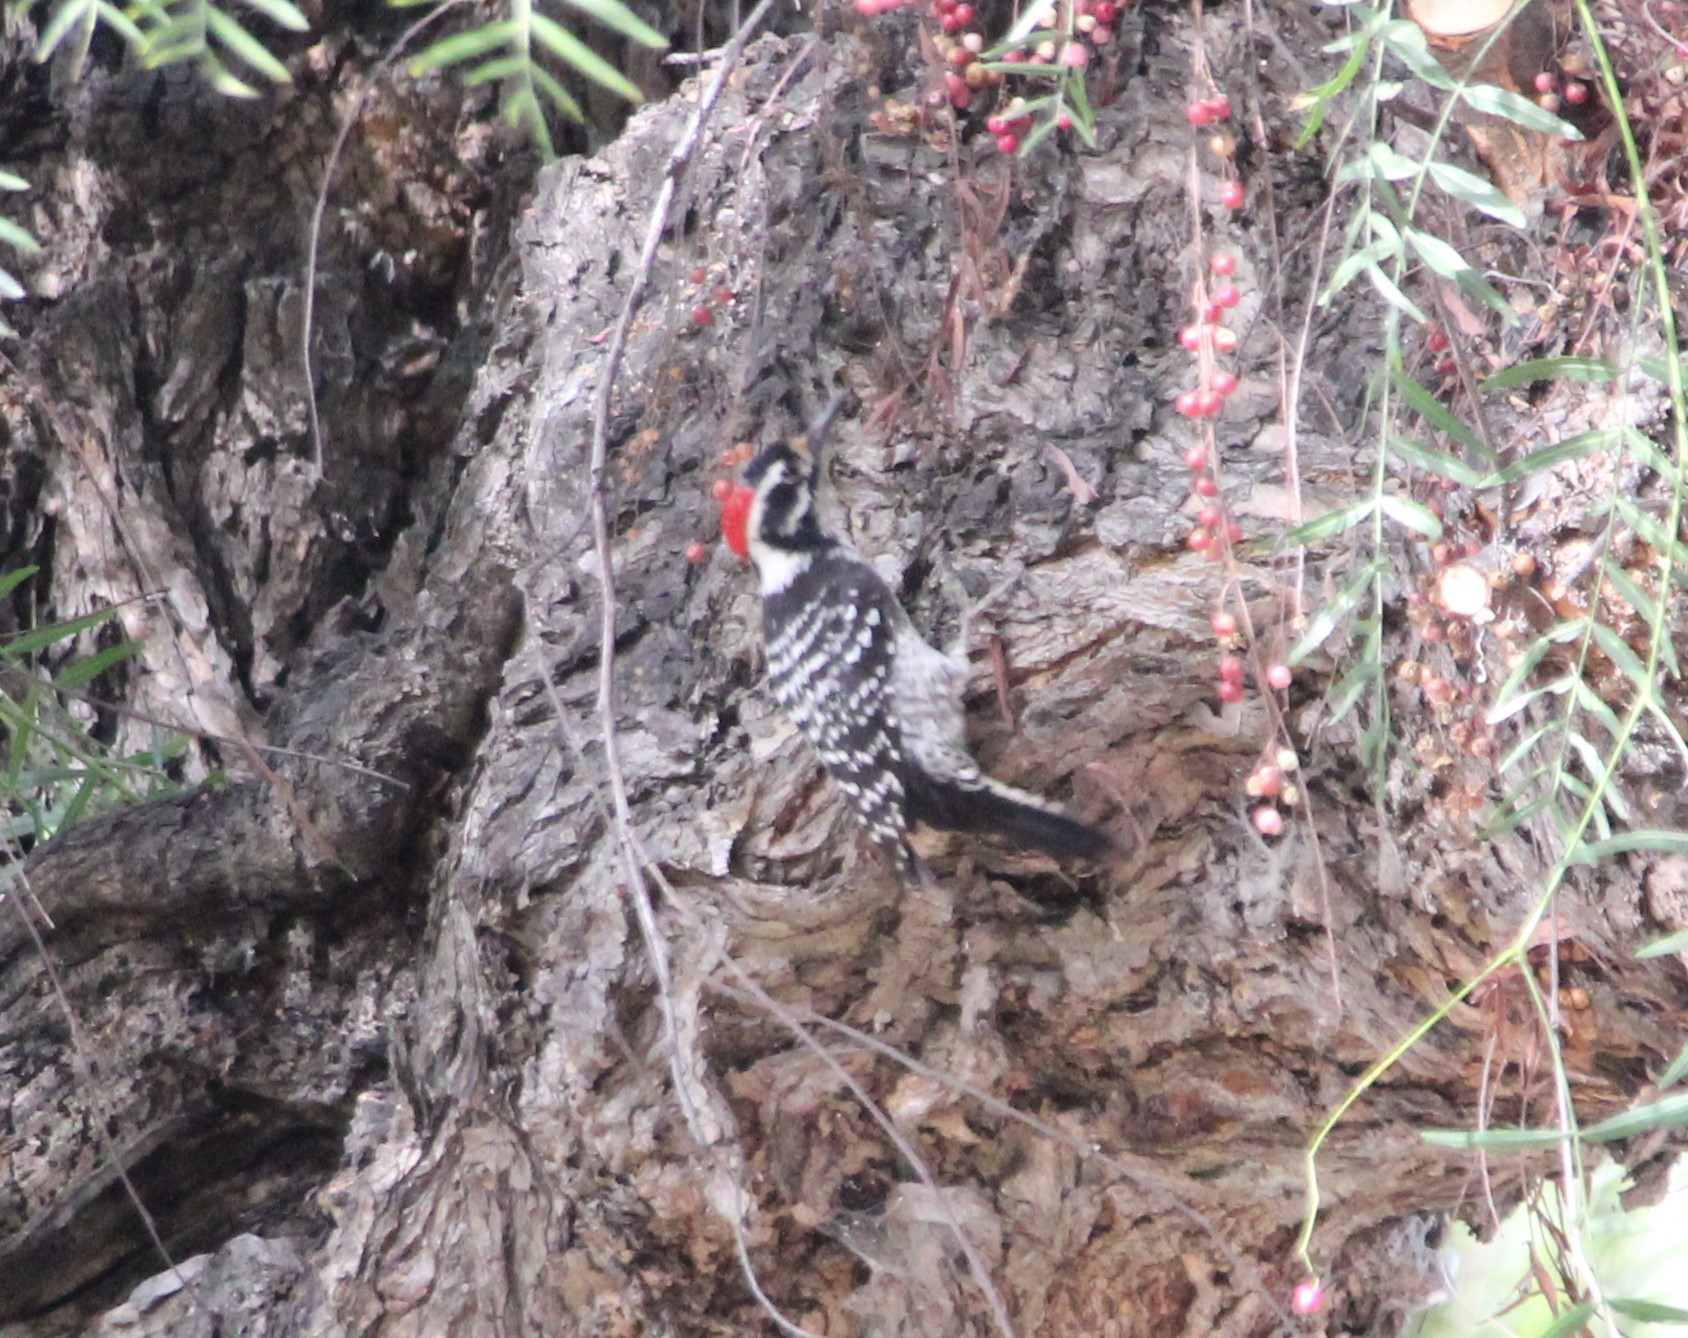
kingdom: Animalia
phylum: Chordata
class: Aves
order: Piciformes
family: Picidae
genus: Dryobates
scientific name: Dryobates nuttallii
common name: Nuttall's woodpecker
